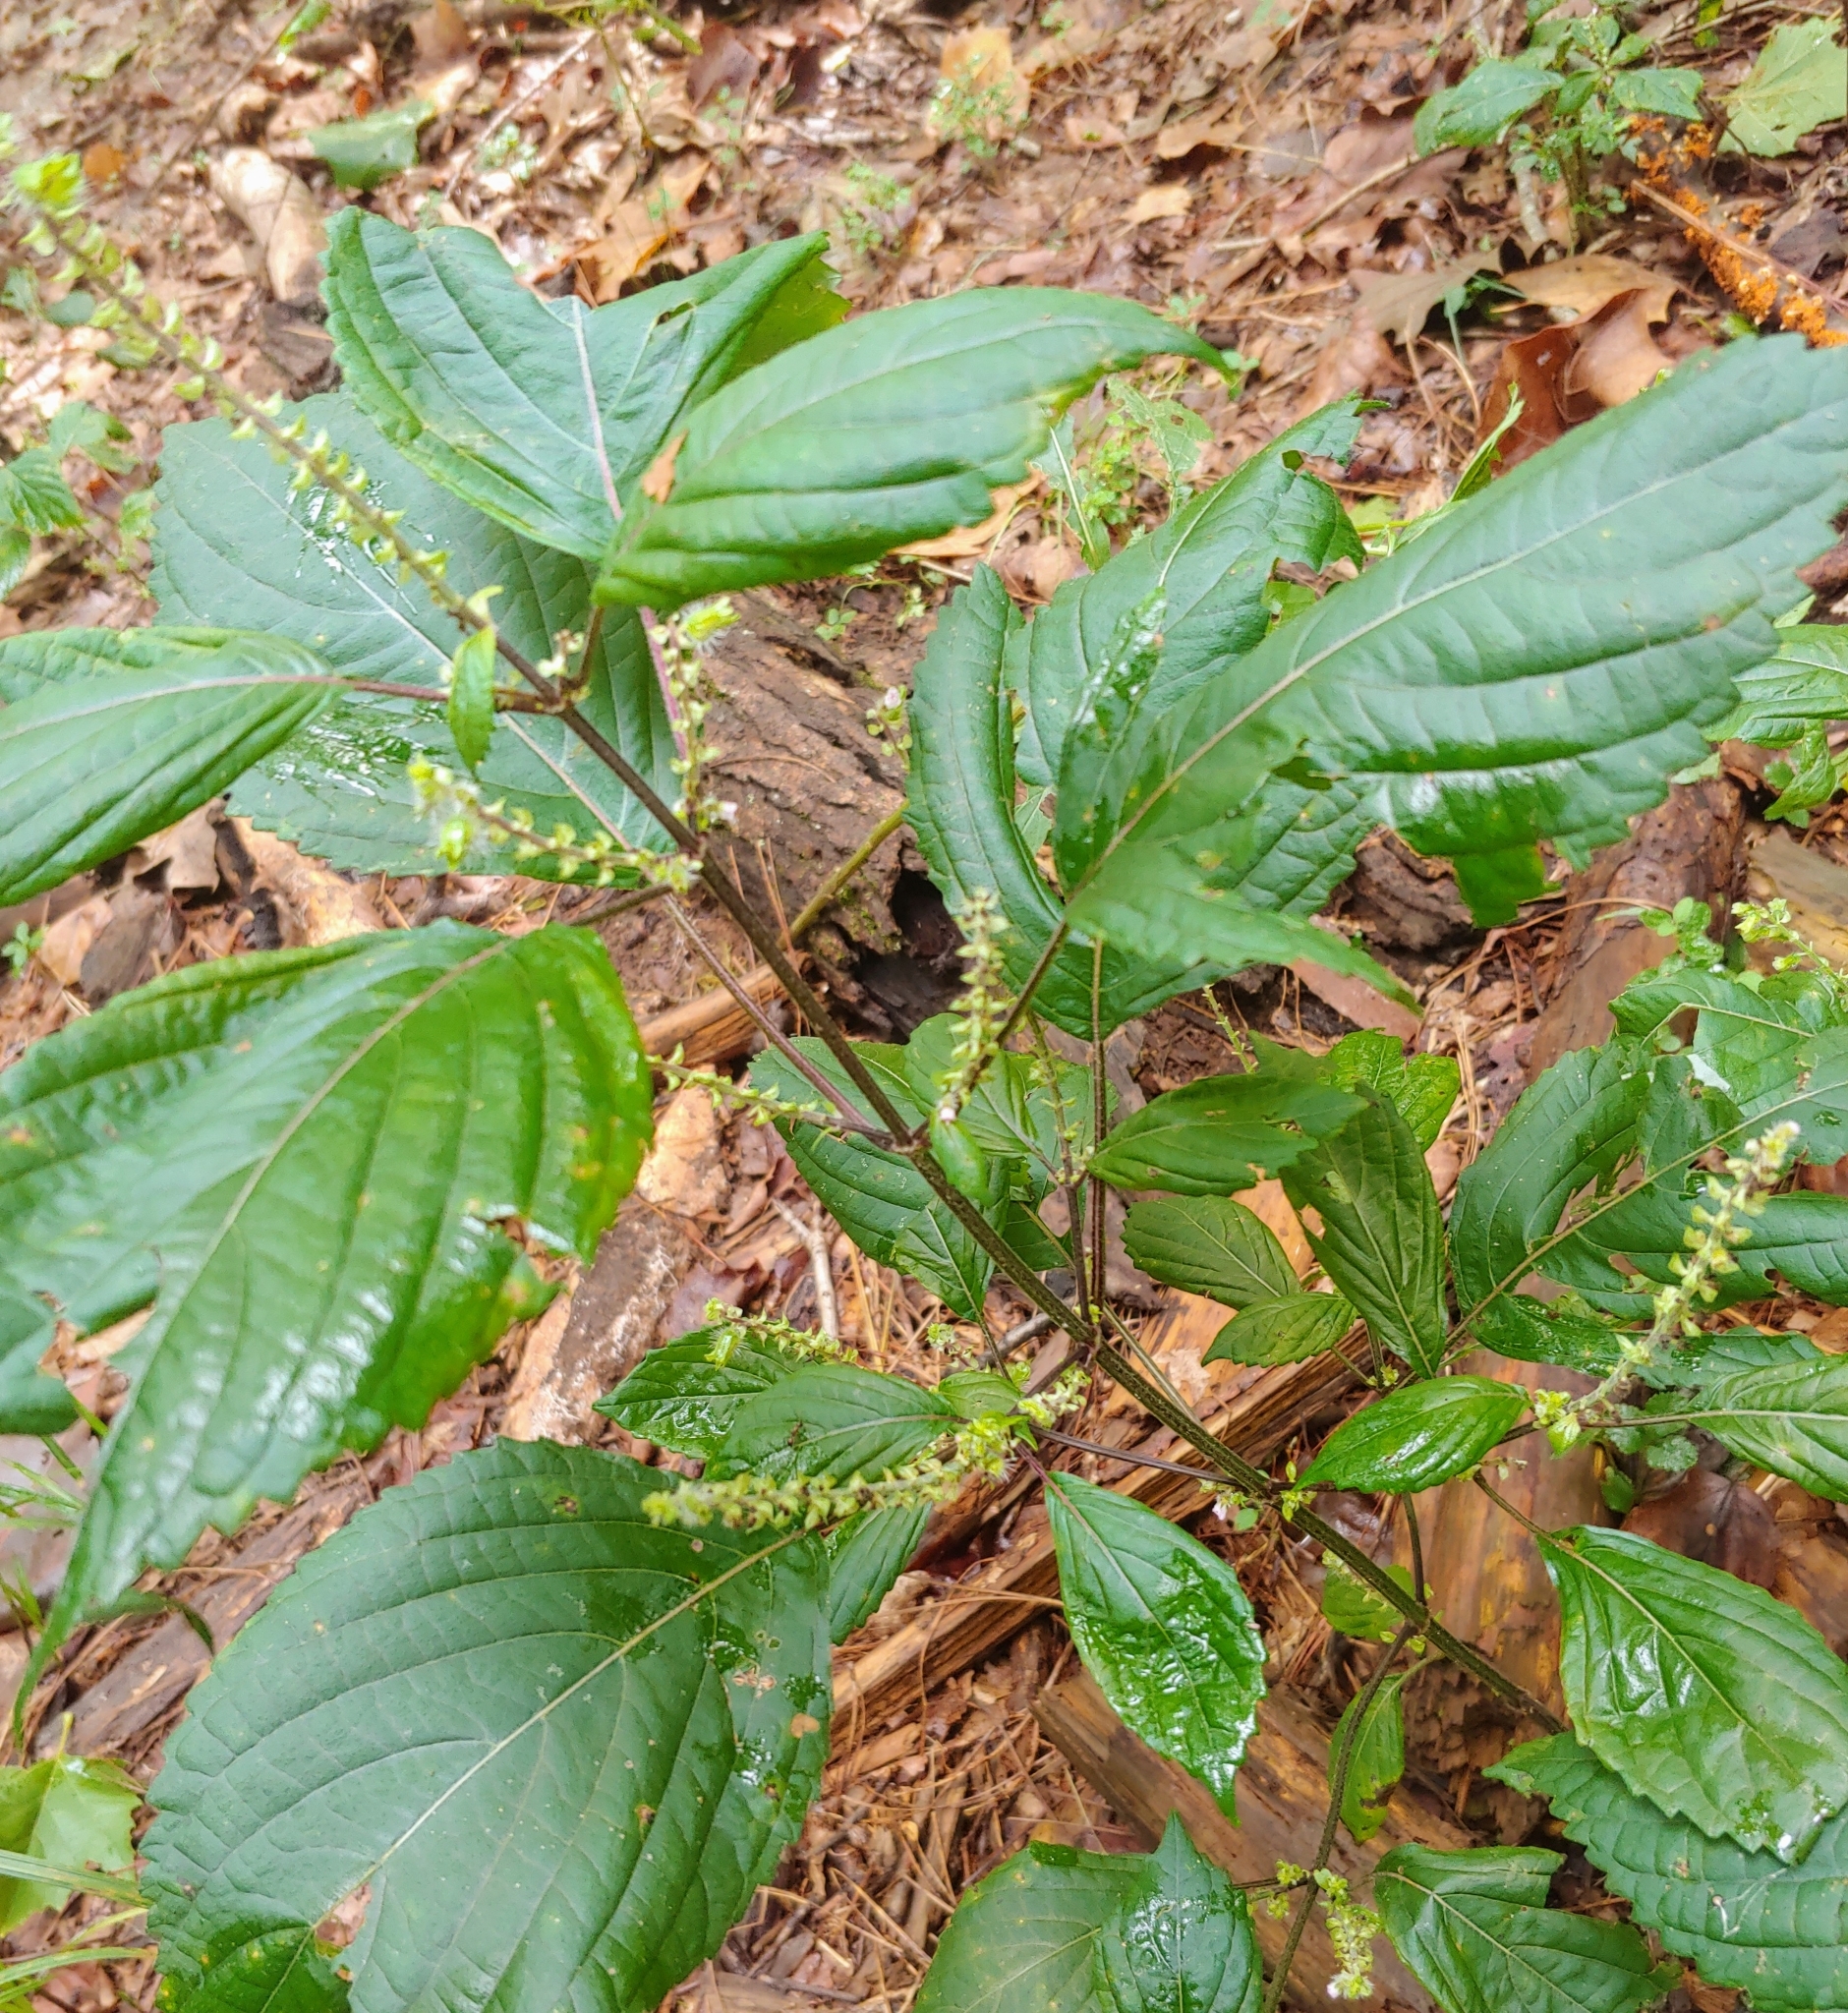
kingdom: Plantae
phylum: Tracheophyta
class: Magnoliopsida
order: Lamiales
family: Lamiaceae
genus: Perilla
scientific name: Perilla frutescens
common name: Perilla
